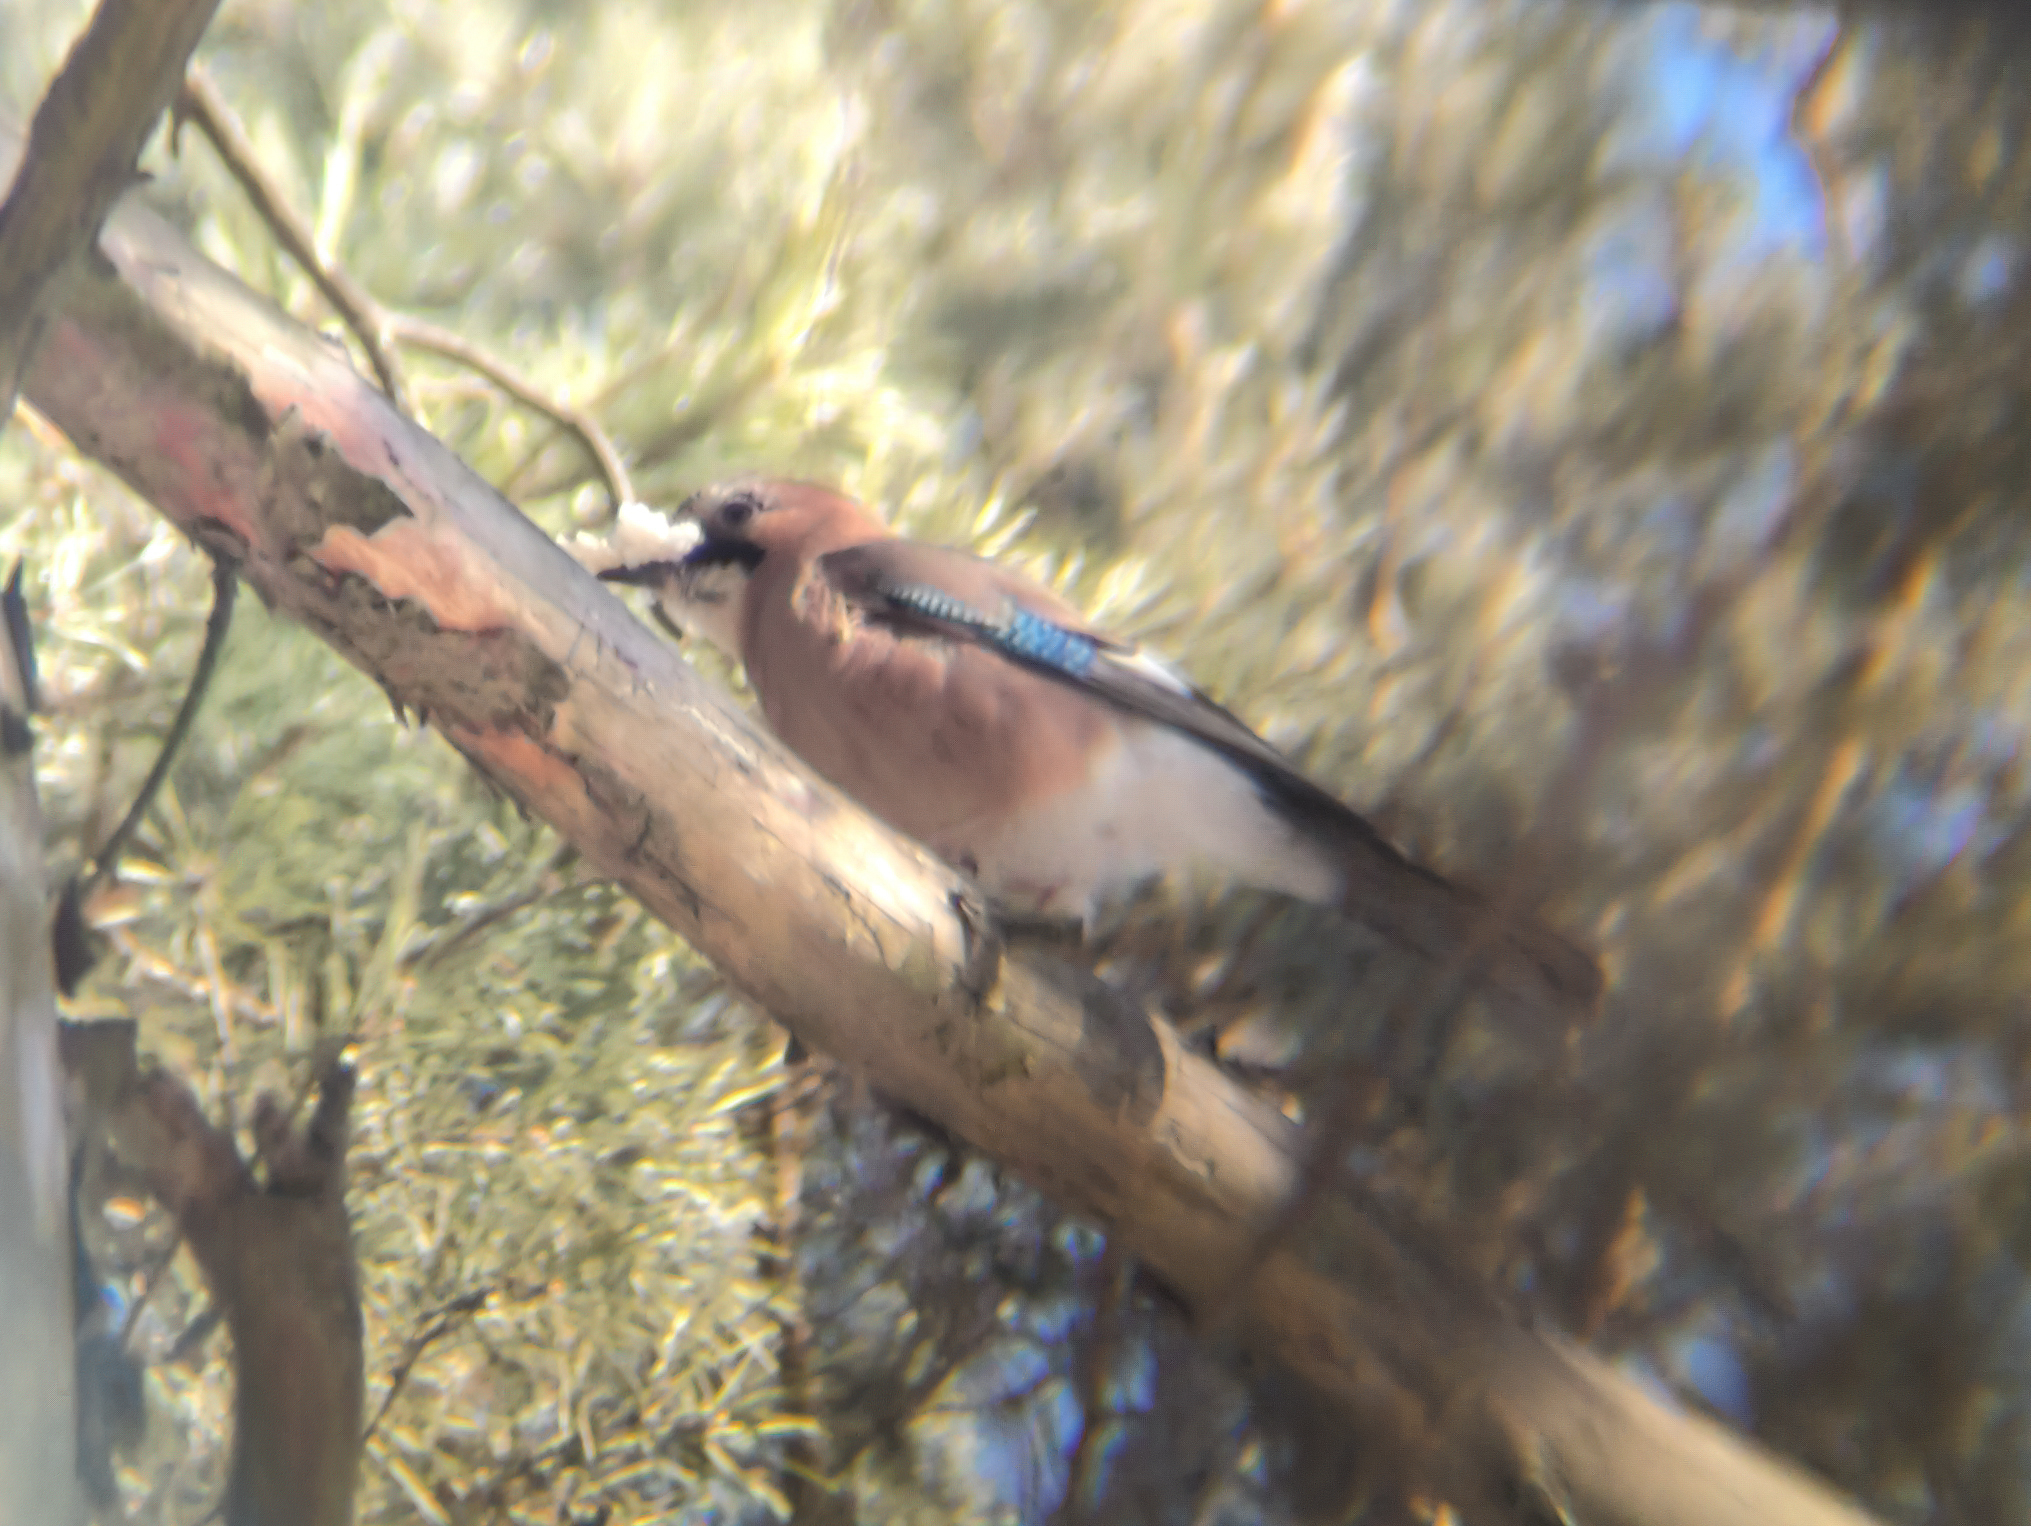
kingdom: Animalia
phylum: Chordata
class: Aves
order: Passeriformes
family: Corvidae
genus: Garrulus
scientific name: Garrulus glandarius
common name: Eurasian jay
